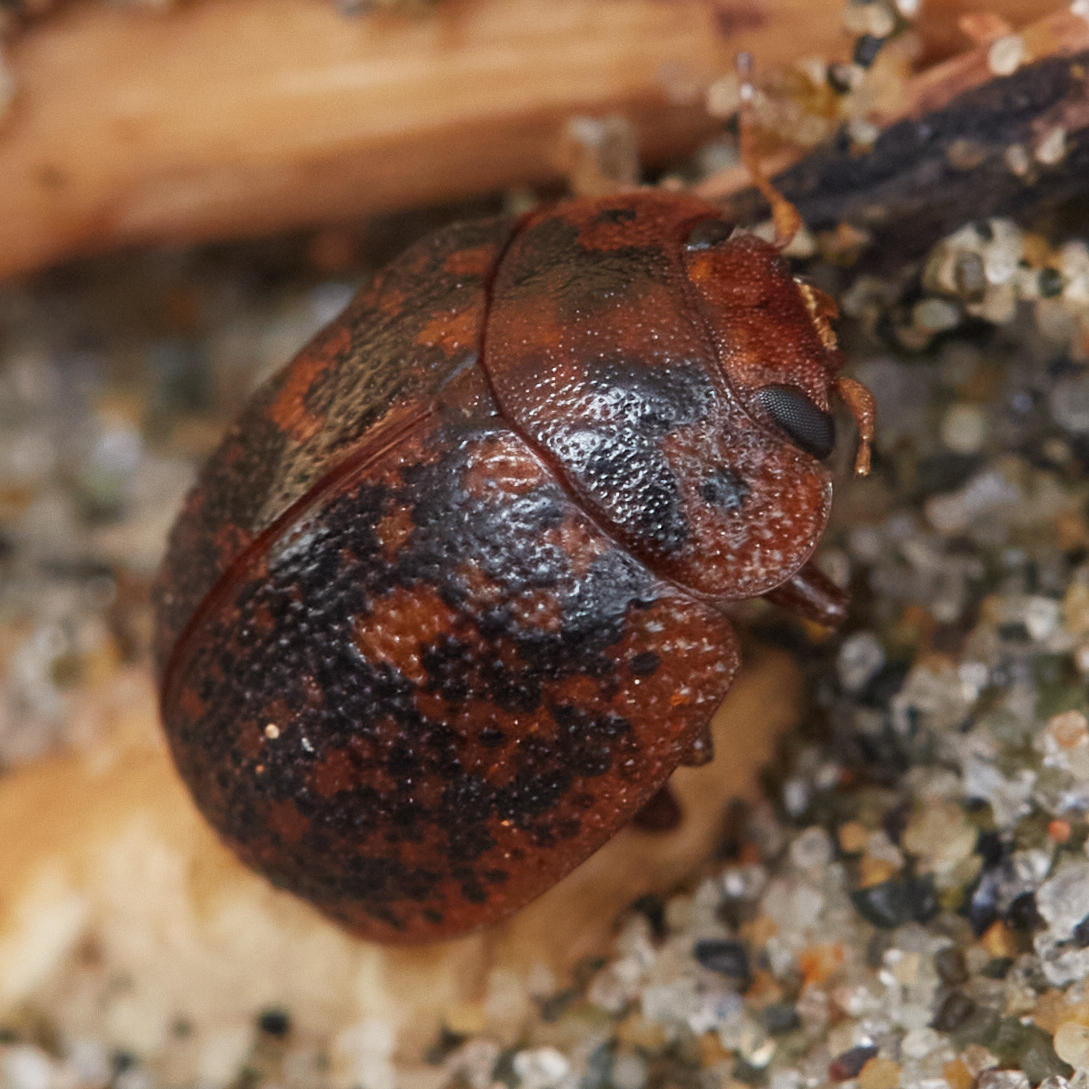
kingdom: Animalia
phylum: Arthropoda
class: Insecta
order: Coleoptera
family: Chrysomelidae
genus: Trachymela
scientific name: Trachymela sloanei
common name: Australian tortoise beetle
